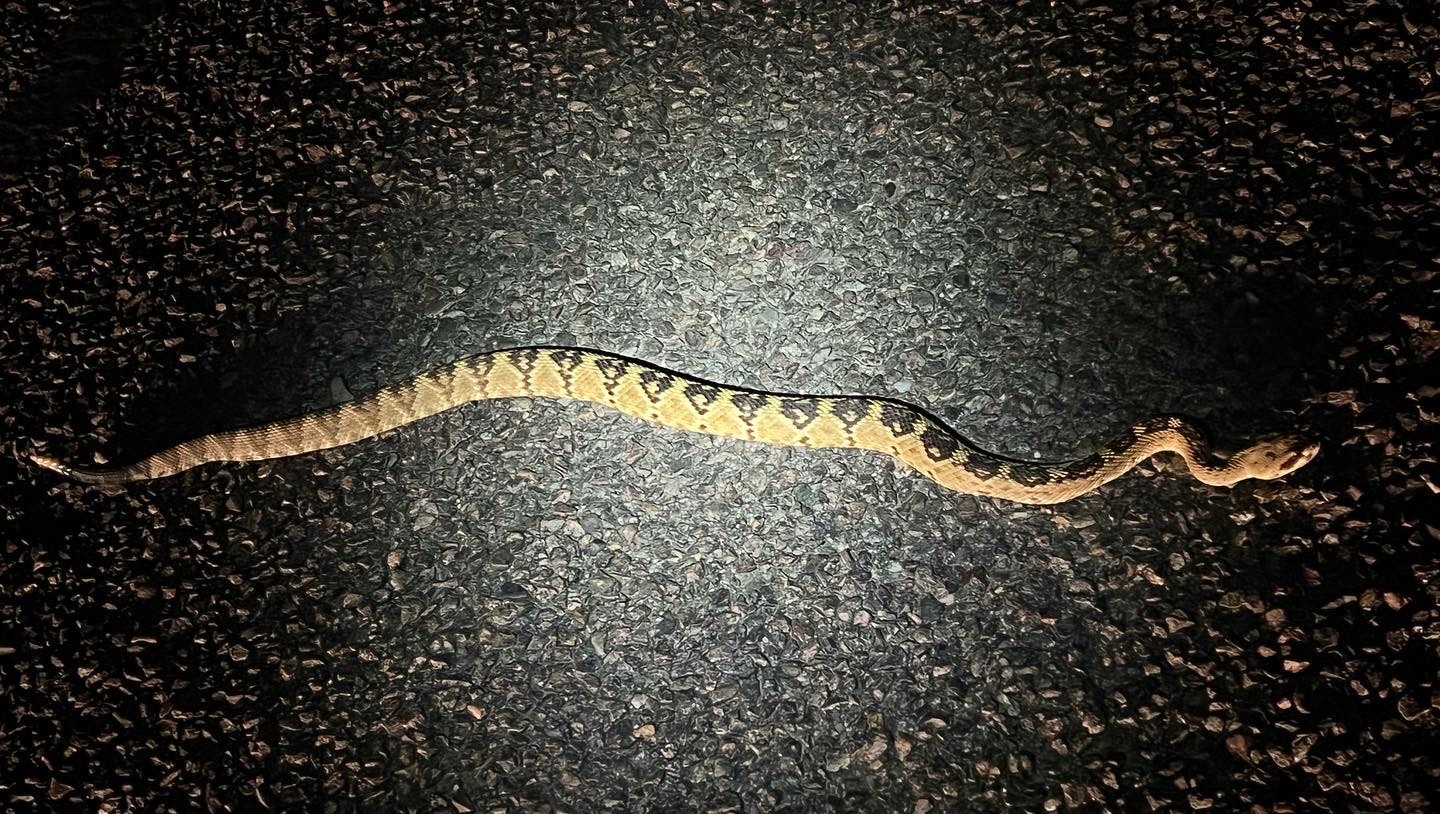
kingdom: Animalia
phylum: Chordata
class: Squamata
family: Viperidae
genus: Crotalus
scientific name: Crotalus molossus
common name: Black tailed rattlesnake
